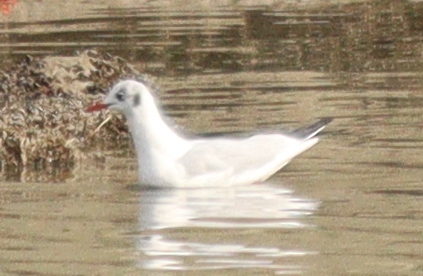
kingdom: Animalia
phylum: Chordata
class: Aves
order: Charadriiformes
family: Laridae
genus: Chroicocephalus
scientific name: Chroicocephalus ridibundus
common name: Black-headed gull
